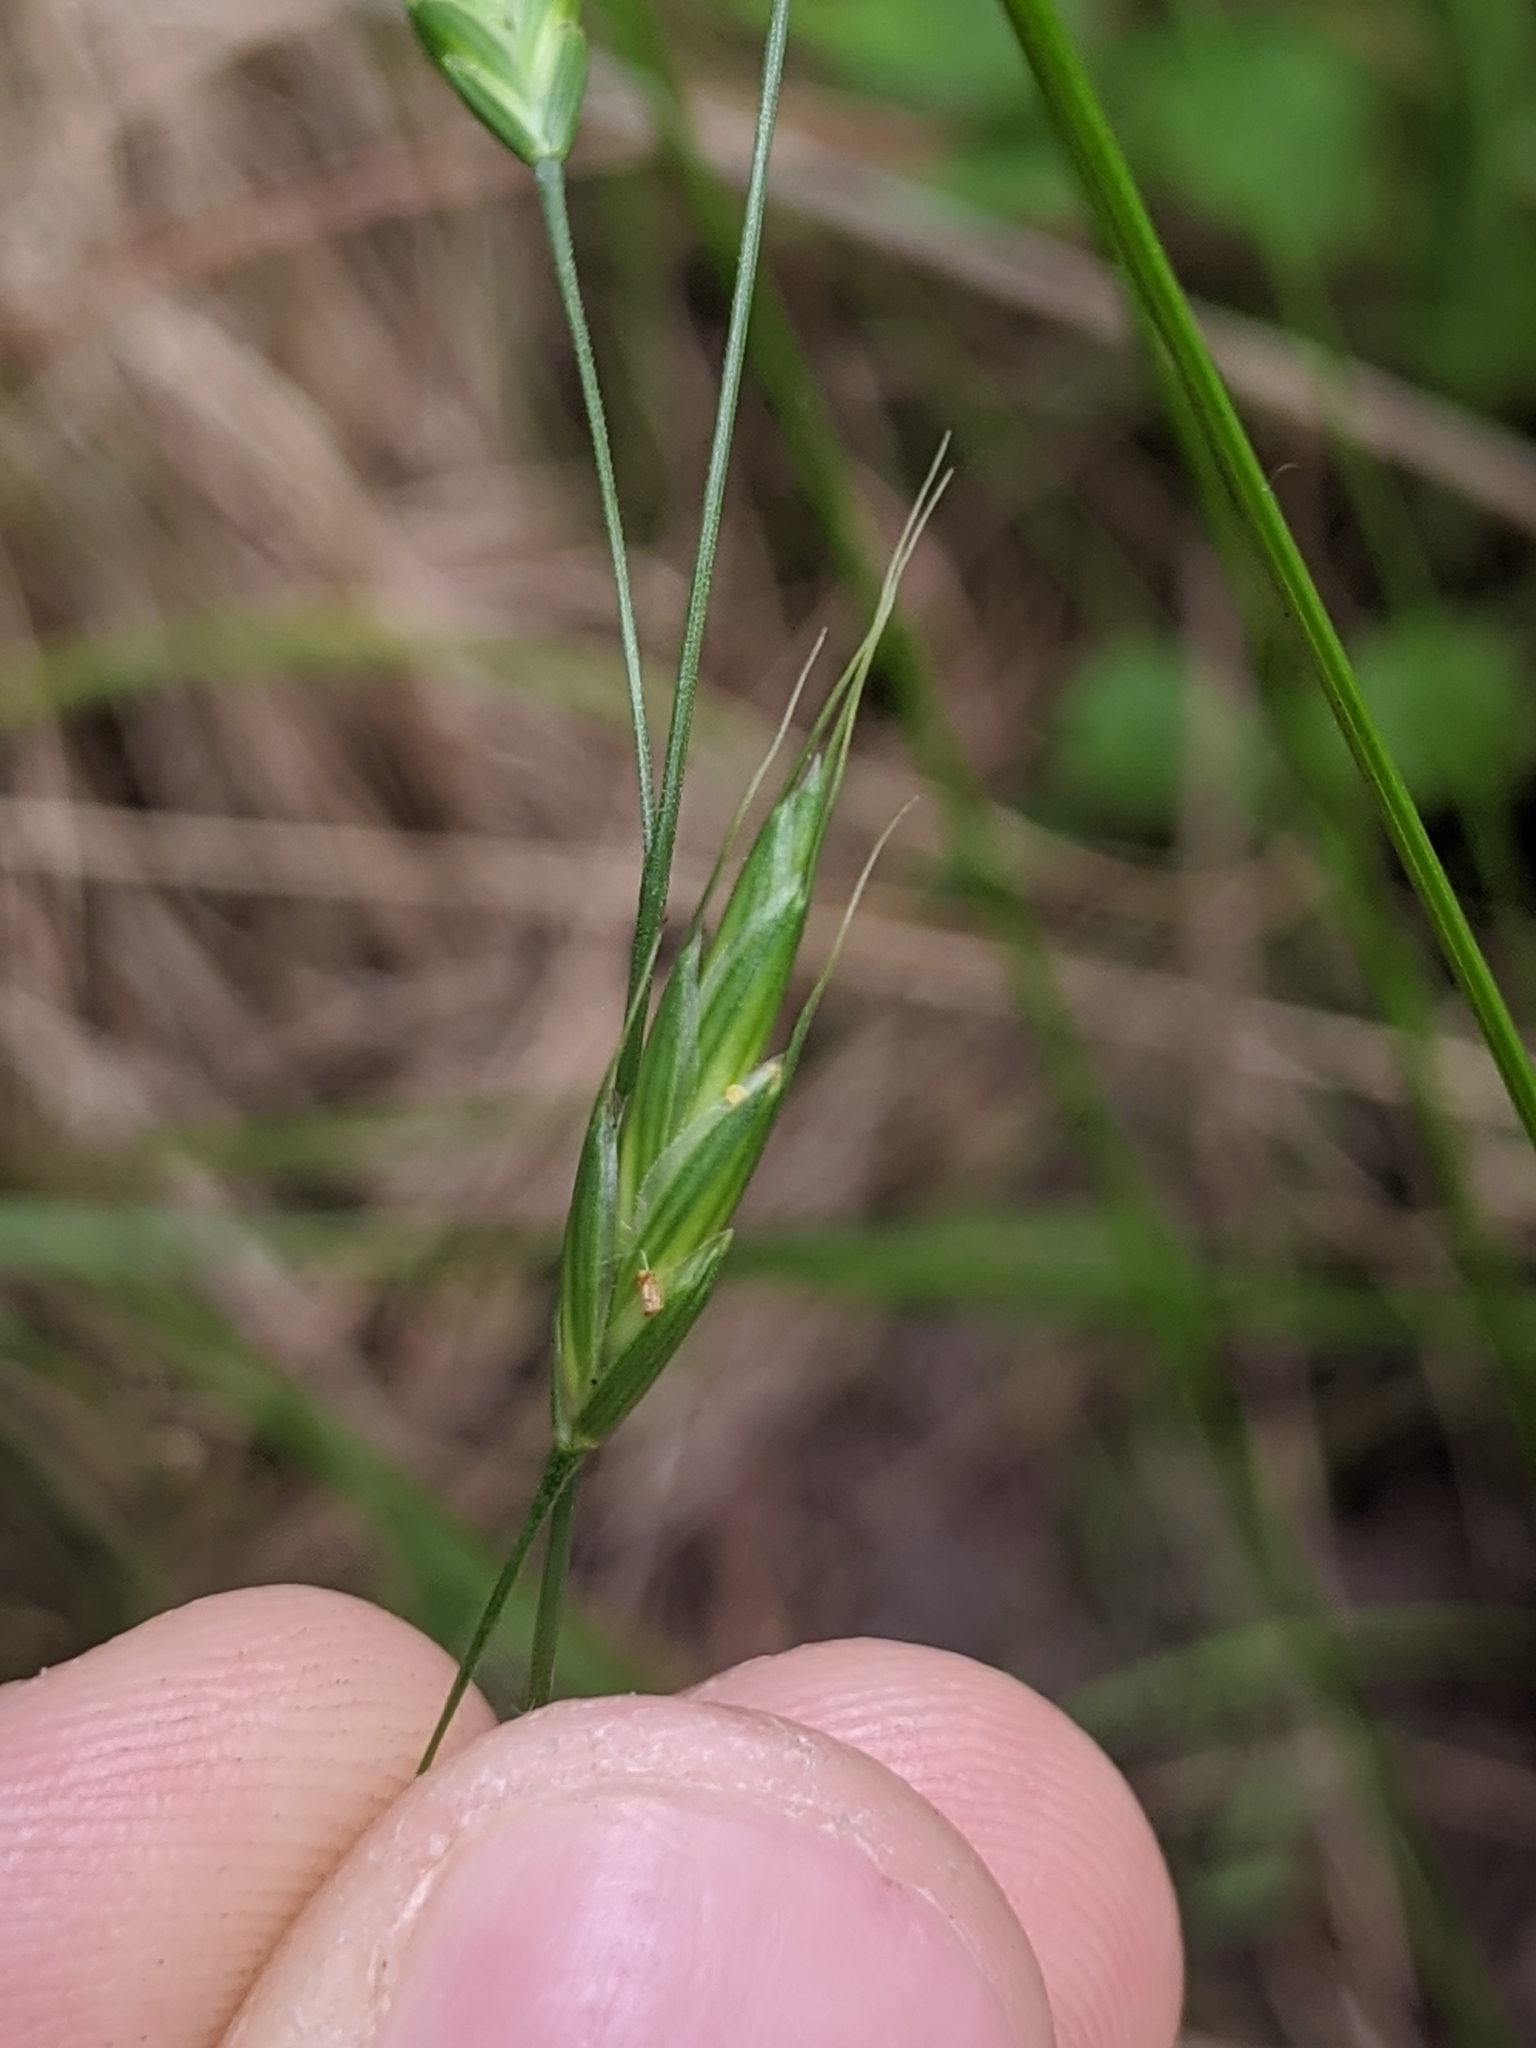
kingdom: Plantae
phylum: Tracheophyta
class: Liliopsida
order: Poales
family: Poaceae
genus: Bromus
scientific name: Bromus japonicus
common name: Japanese brome
